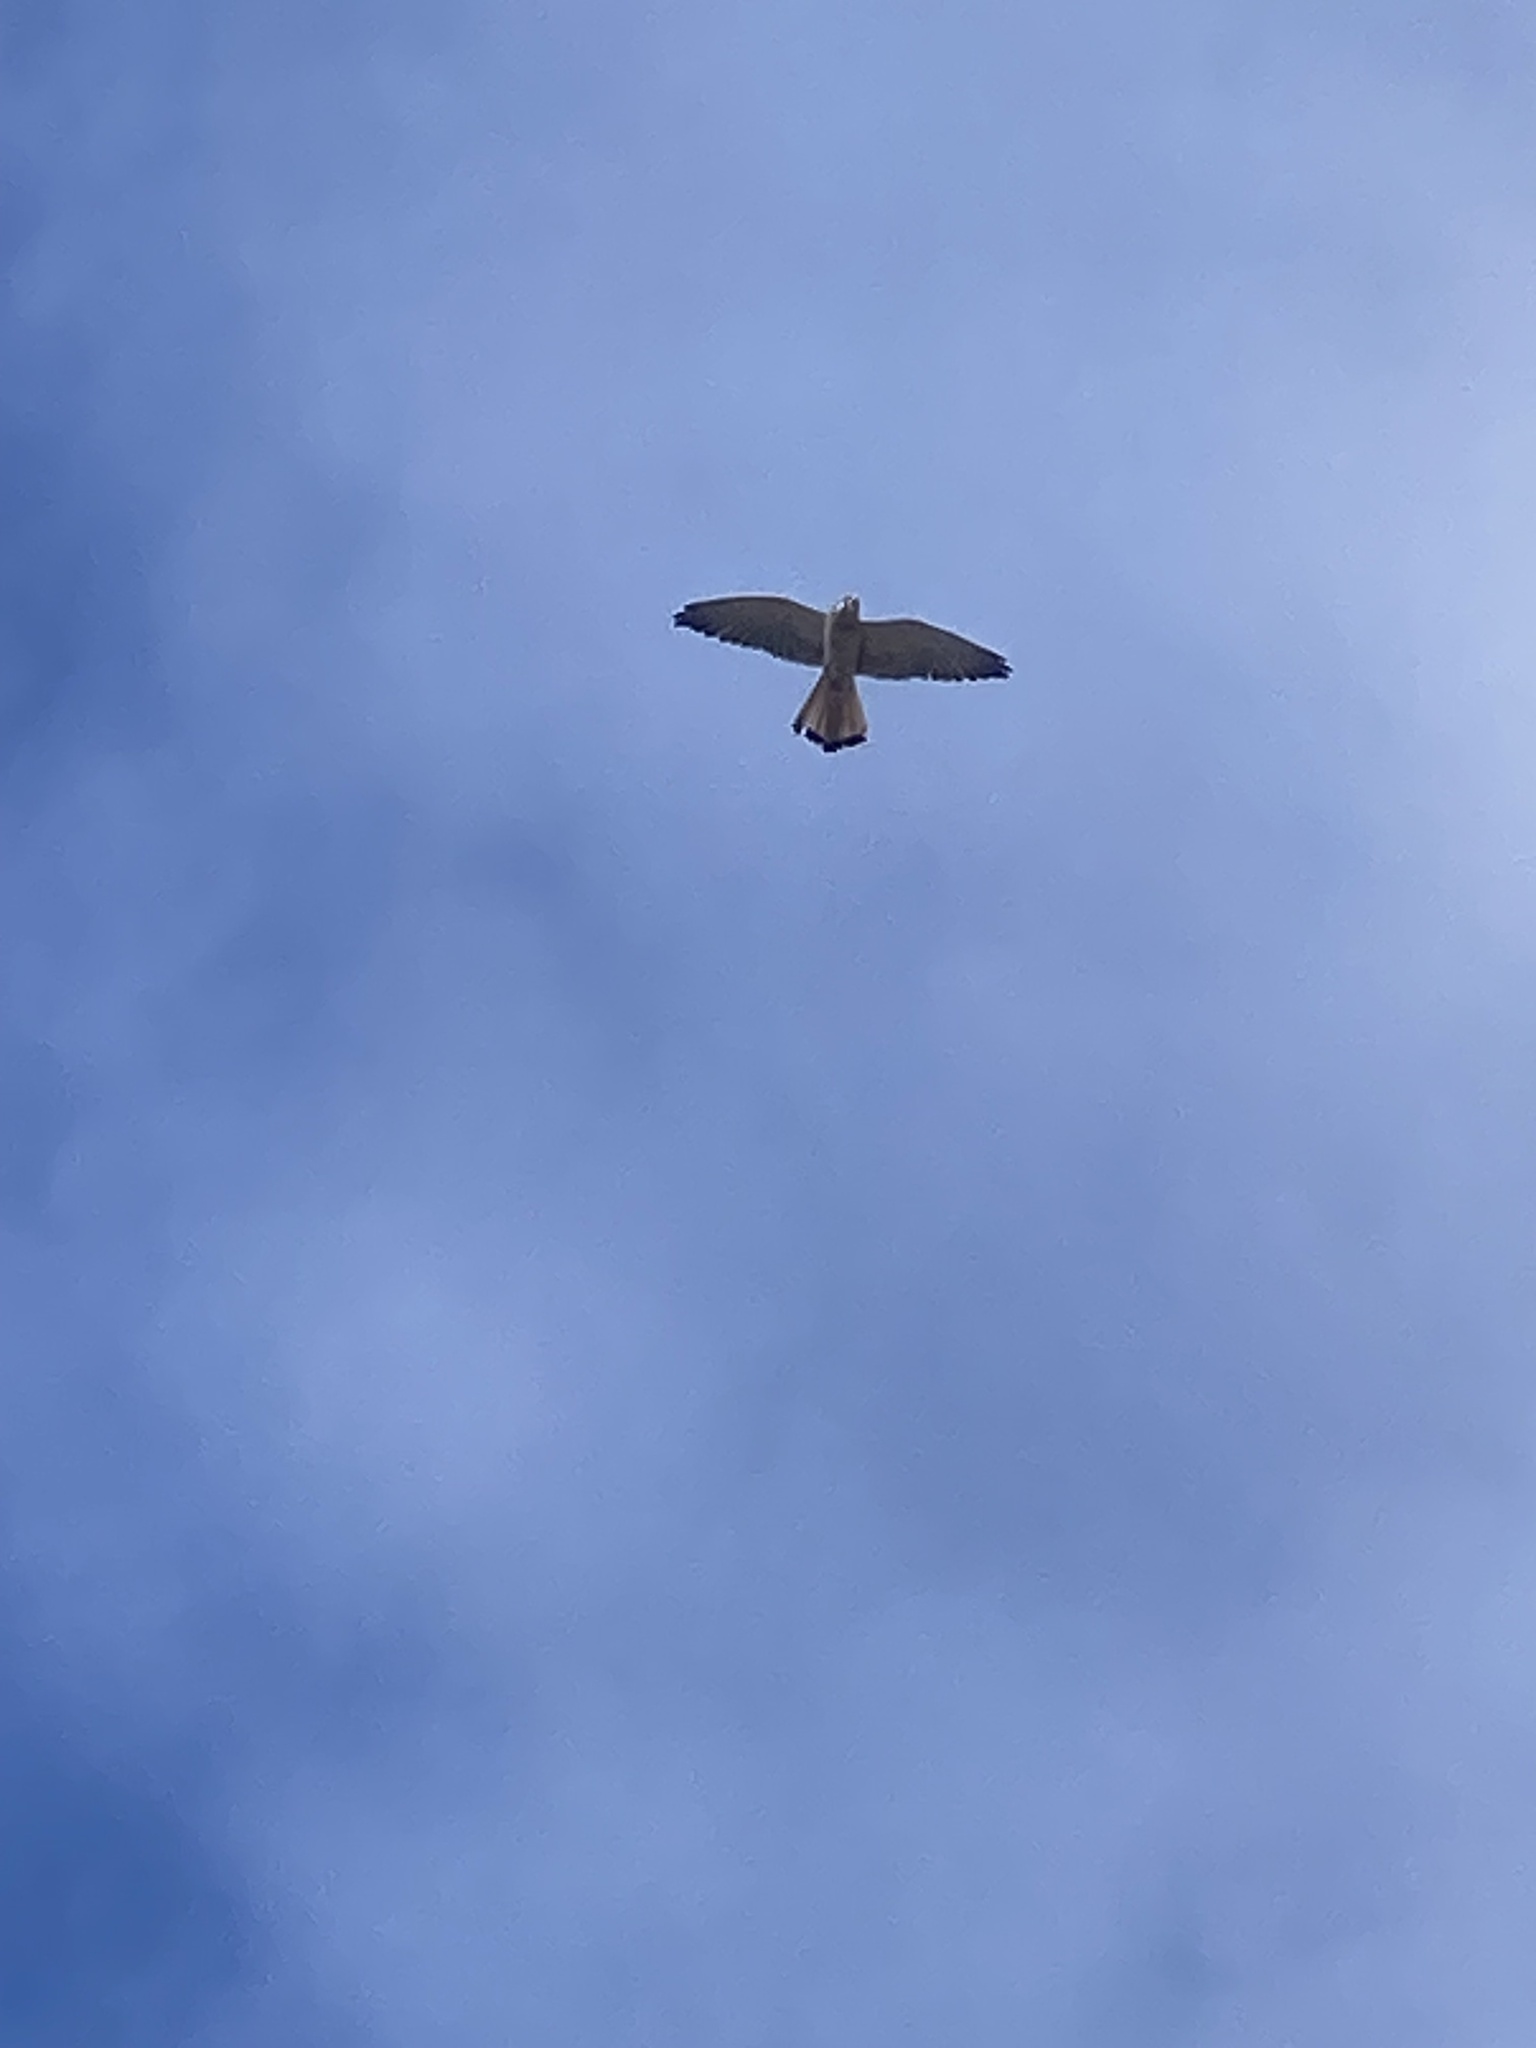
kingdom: Animalia
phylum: Chordata
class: Aves
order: Falconiformes
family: Falconidae
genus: Falco
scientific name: Falco cenchroides
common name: Nankeen kestrel
